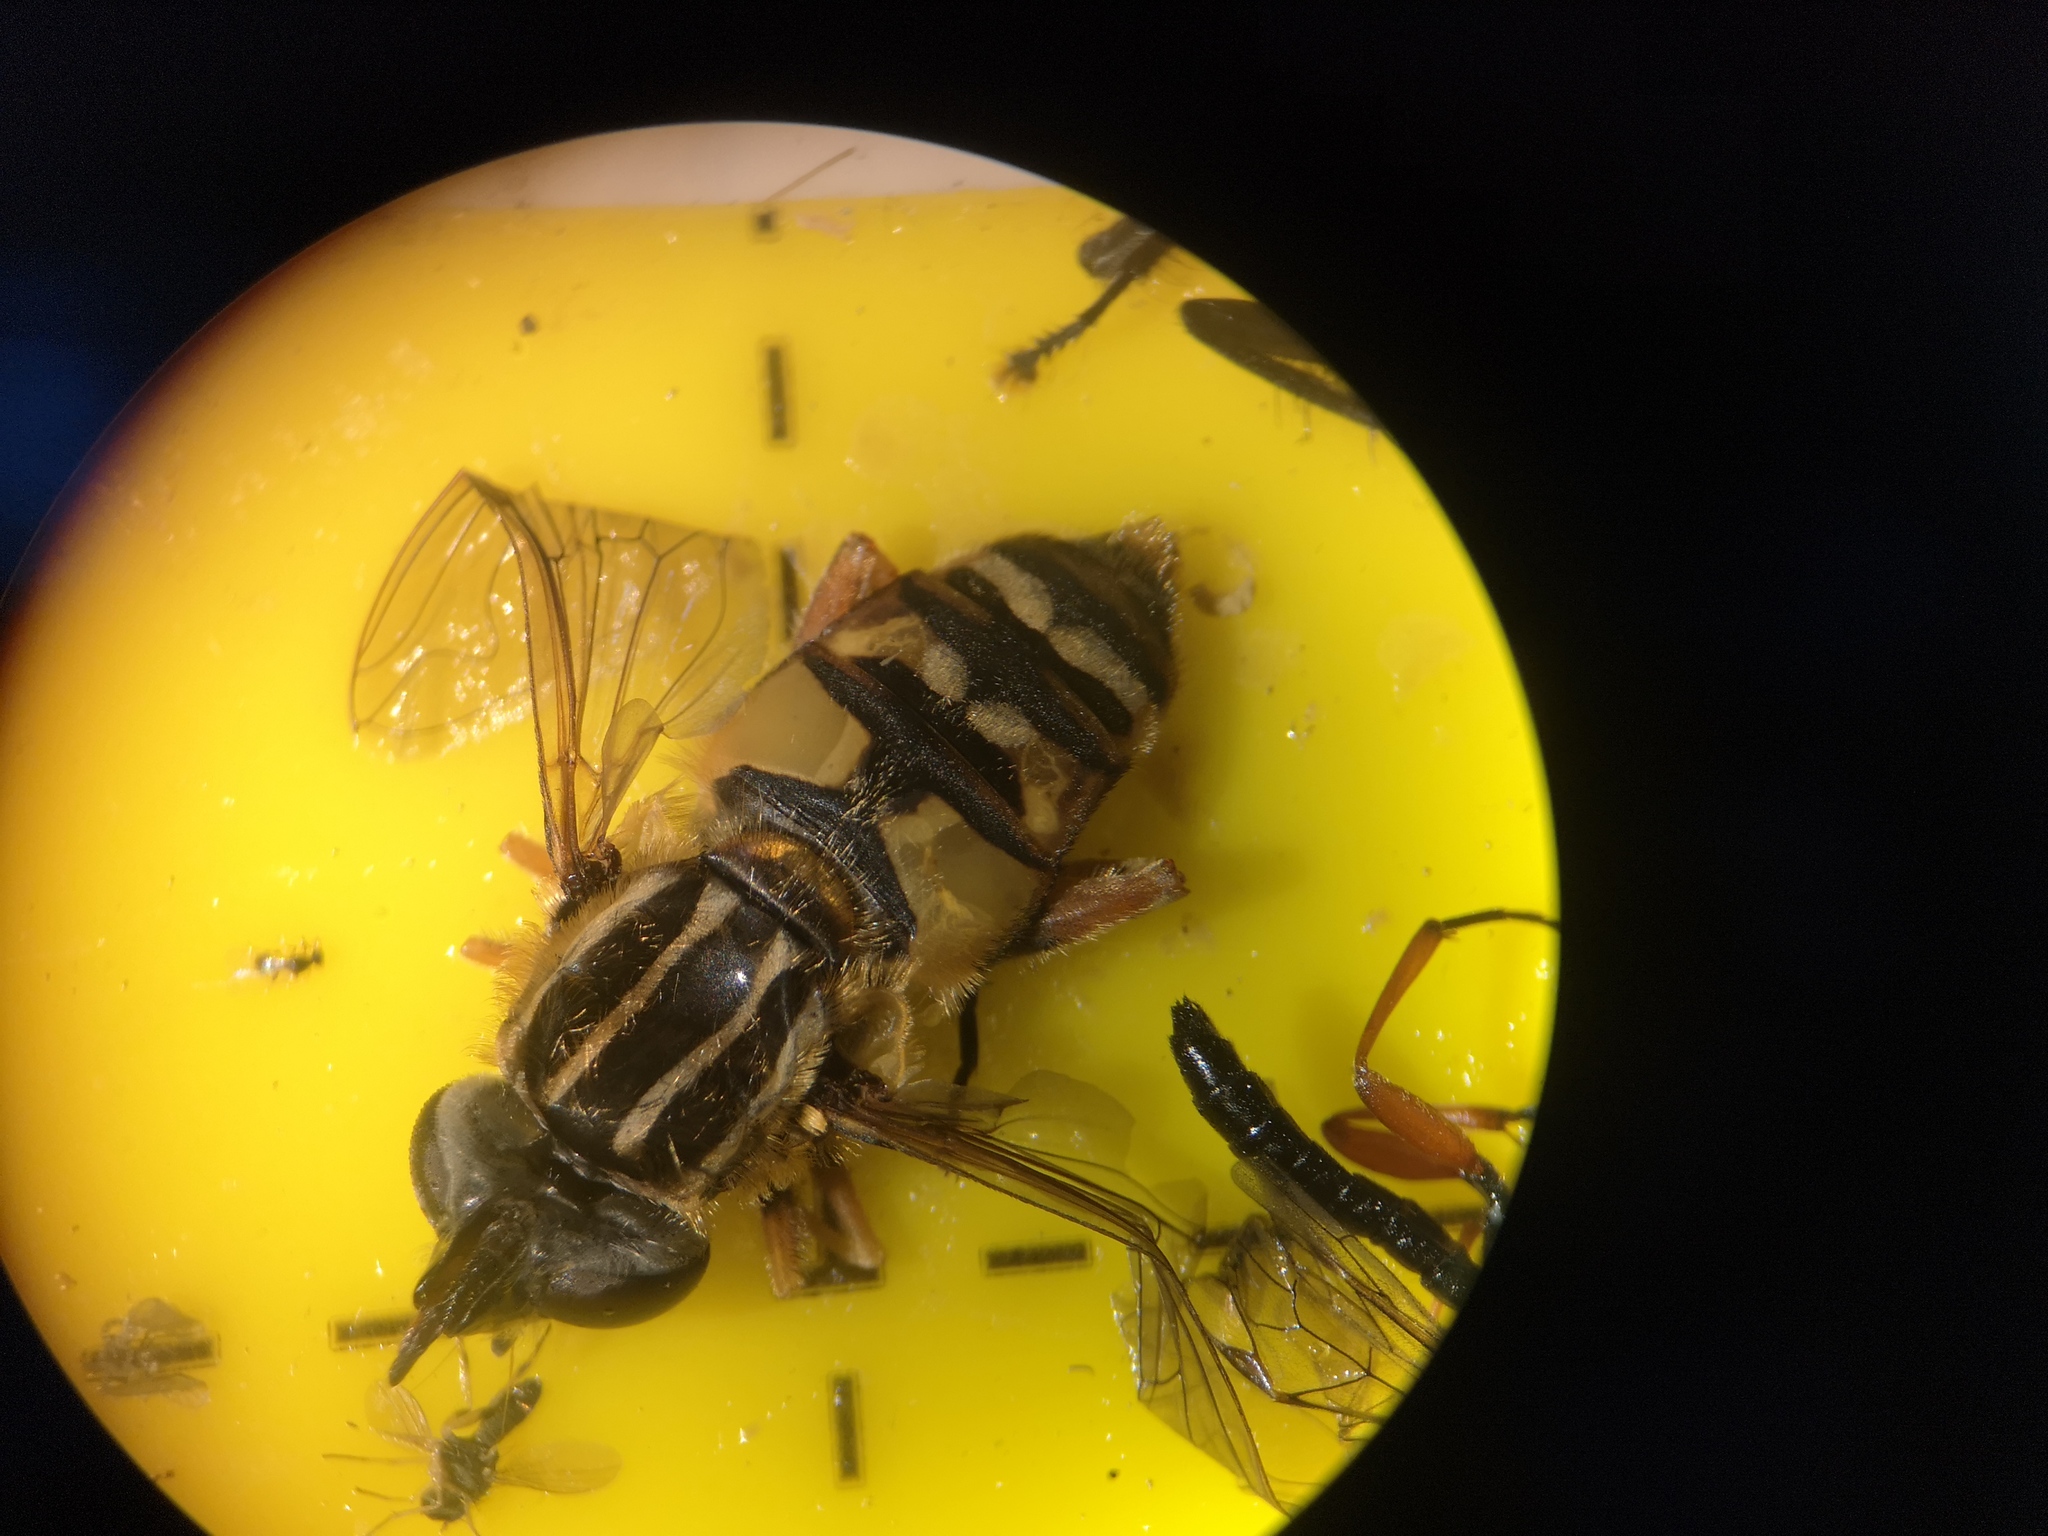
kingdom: Animalia
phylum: Arthropoda
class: Insecta
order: Diptera
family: Syrphidae
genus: Helophilus
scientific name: Helophilus pendulus
